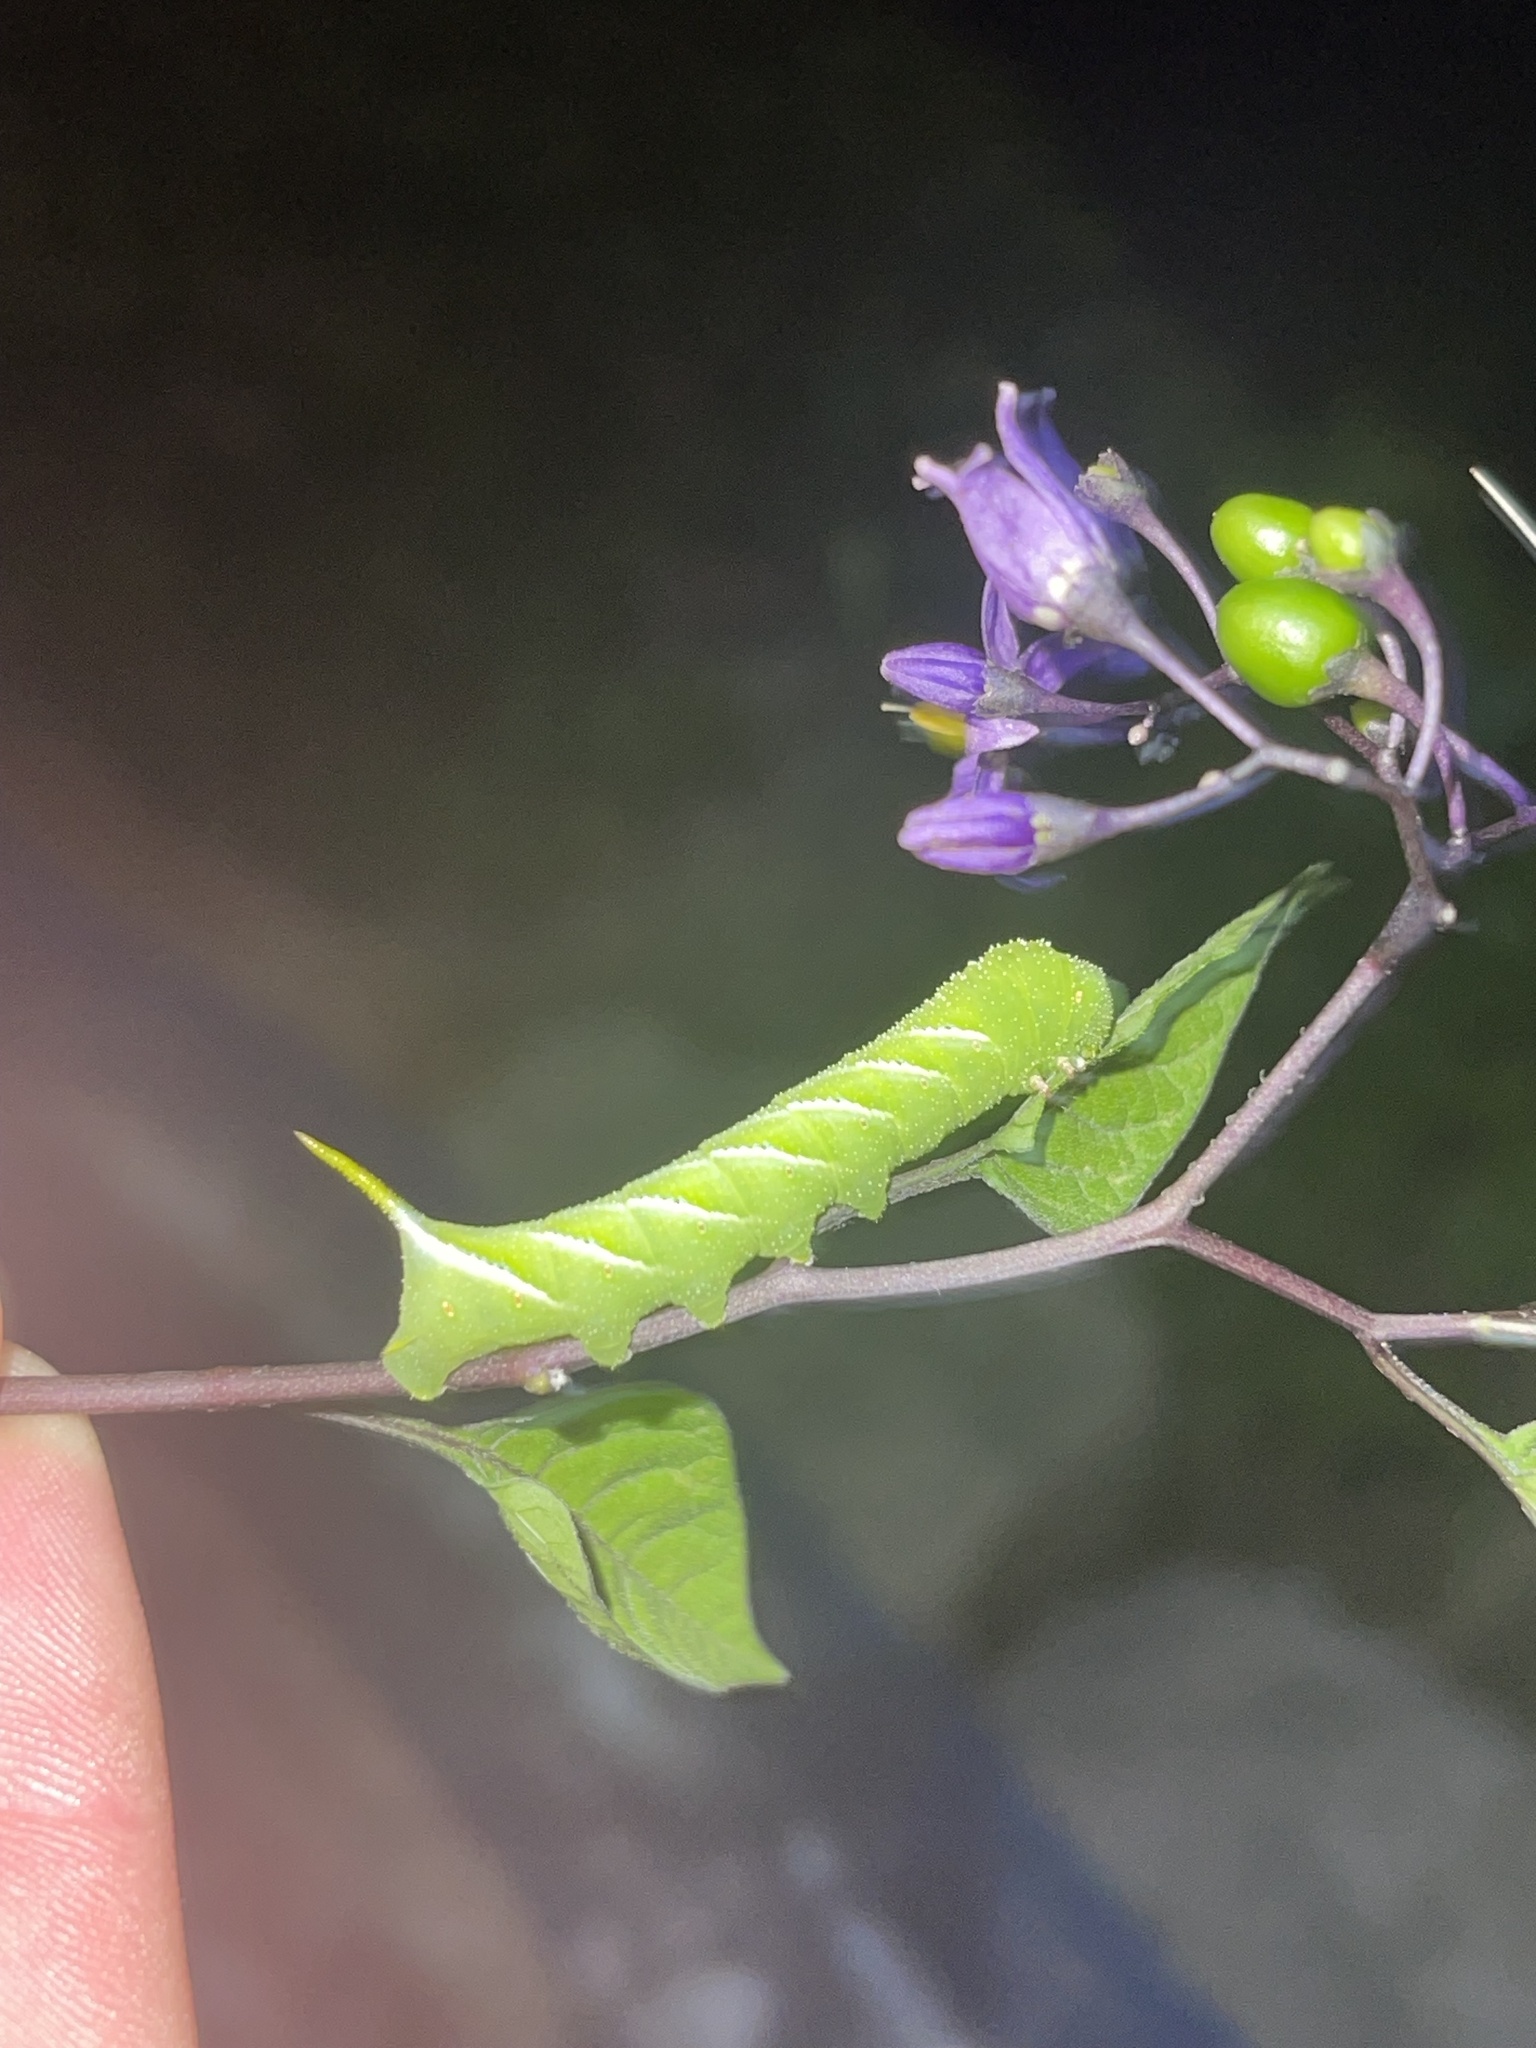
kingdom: Animalia
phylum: Arthropoda
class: Insecta
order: Lepidoptera
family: Sphingidae
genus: Manduca
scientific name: Manduca sexta
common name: Carolina sphinx
